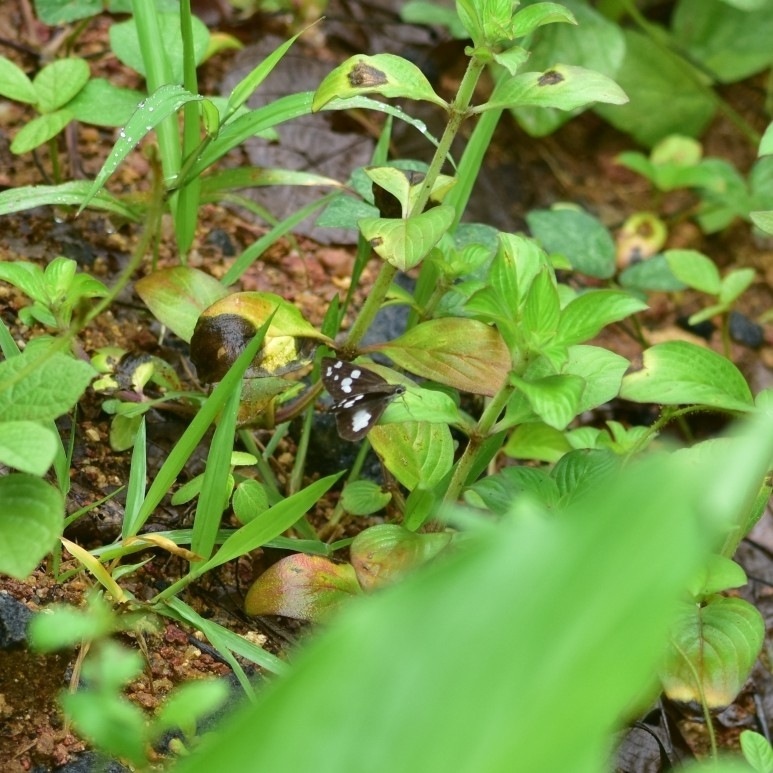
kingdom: Animalia
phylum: Arthropoda
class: Insecta
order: Lepidoptera
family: Hesperiidae
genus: Udaspes
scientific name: Udaspes folus
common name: Grass demon
